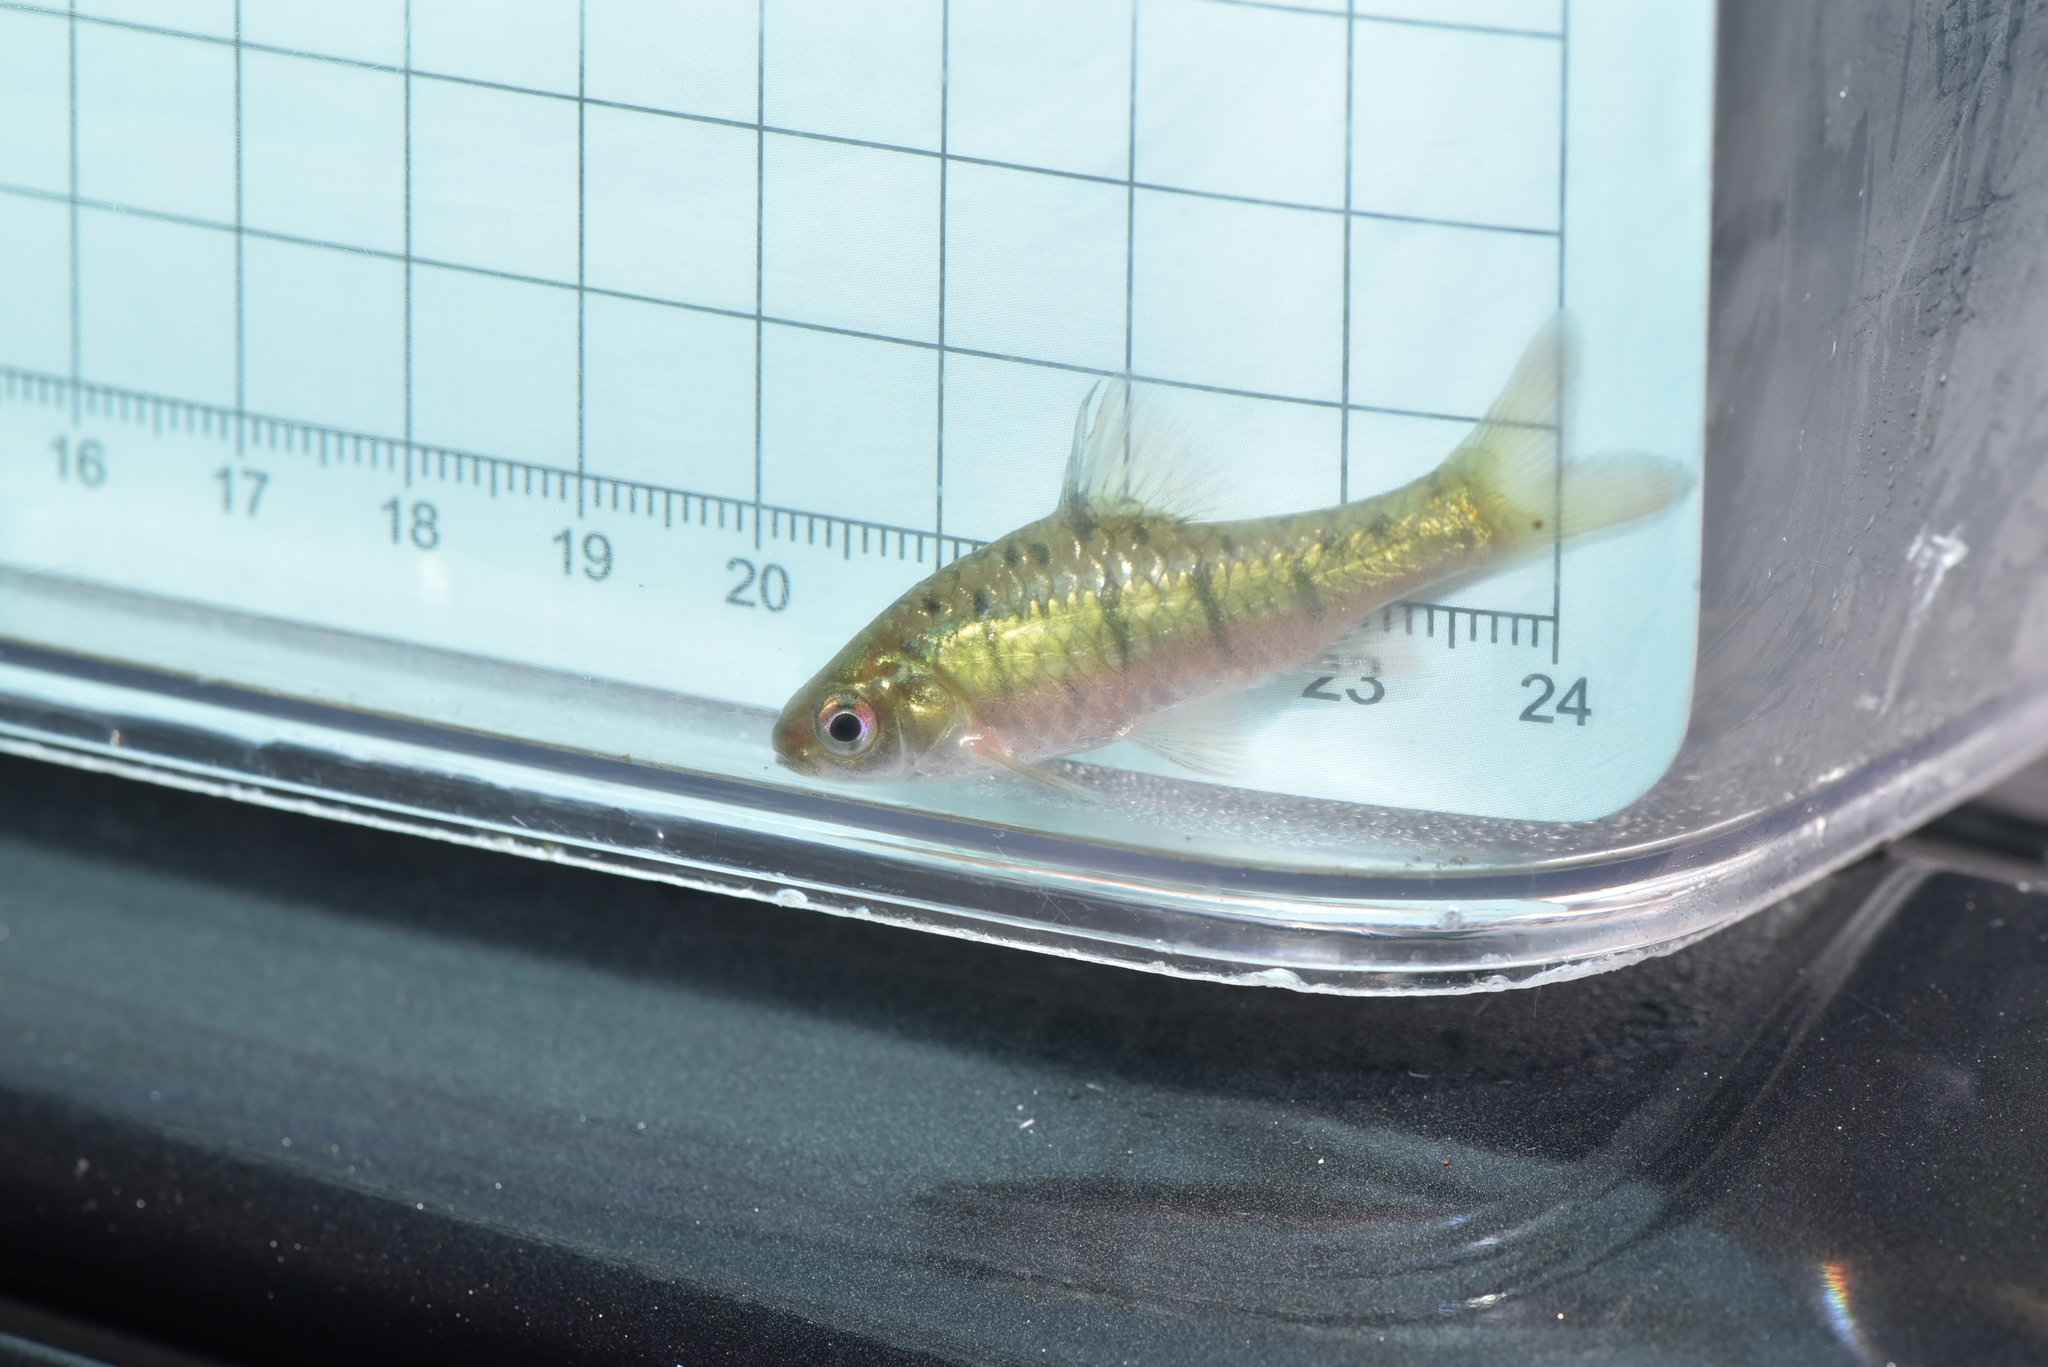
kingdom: Animalia
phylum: Chordata
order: Cypriniformes
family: Cyprinidae
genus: Barbodes
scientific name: Barbodes semifasciolatus
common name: Gold barb
